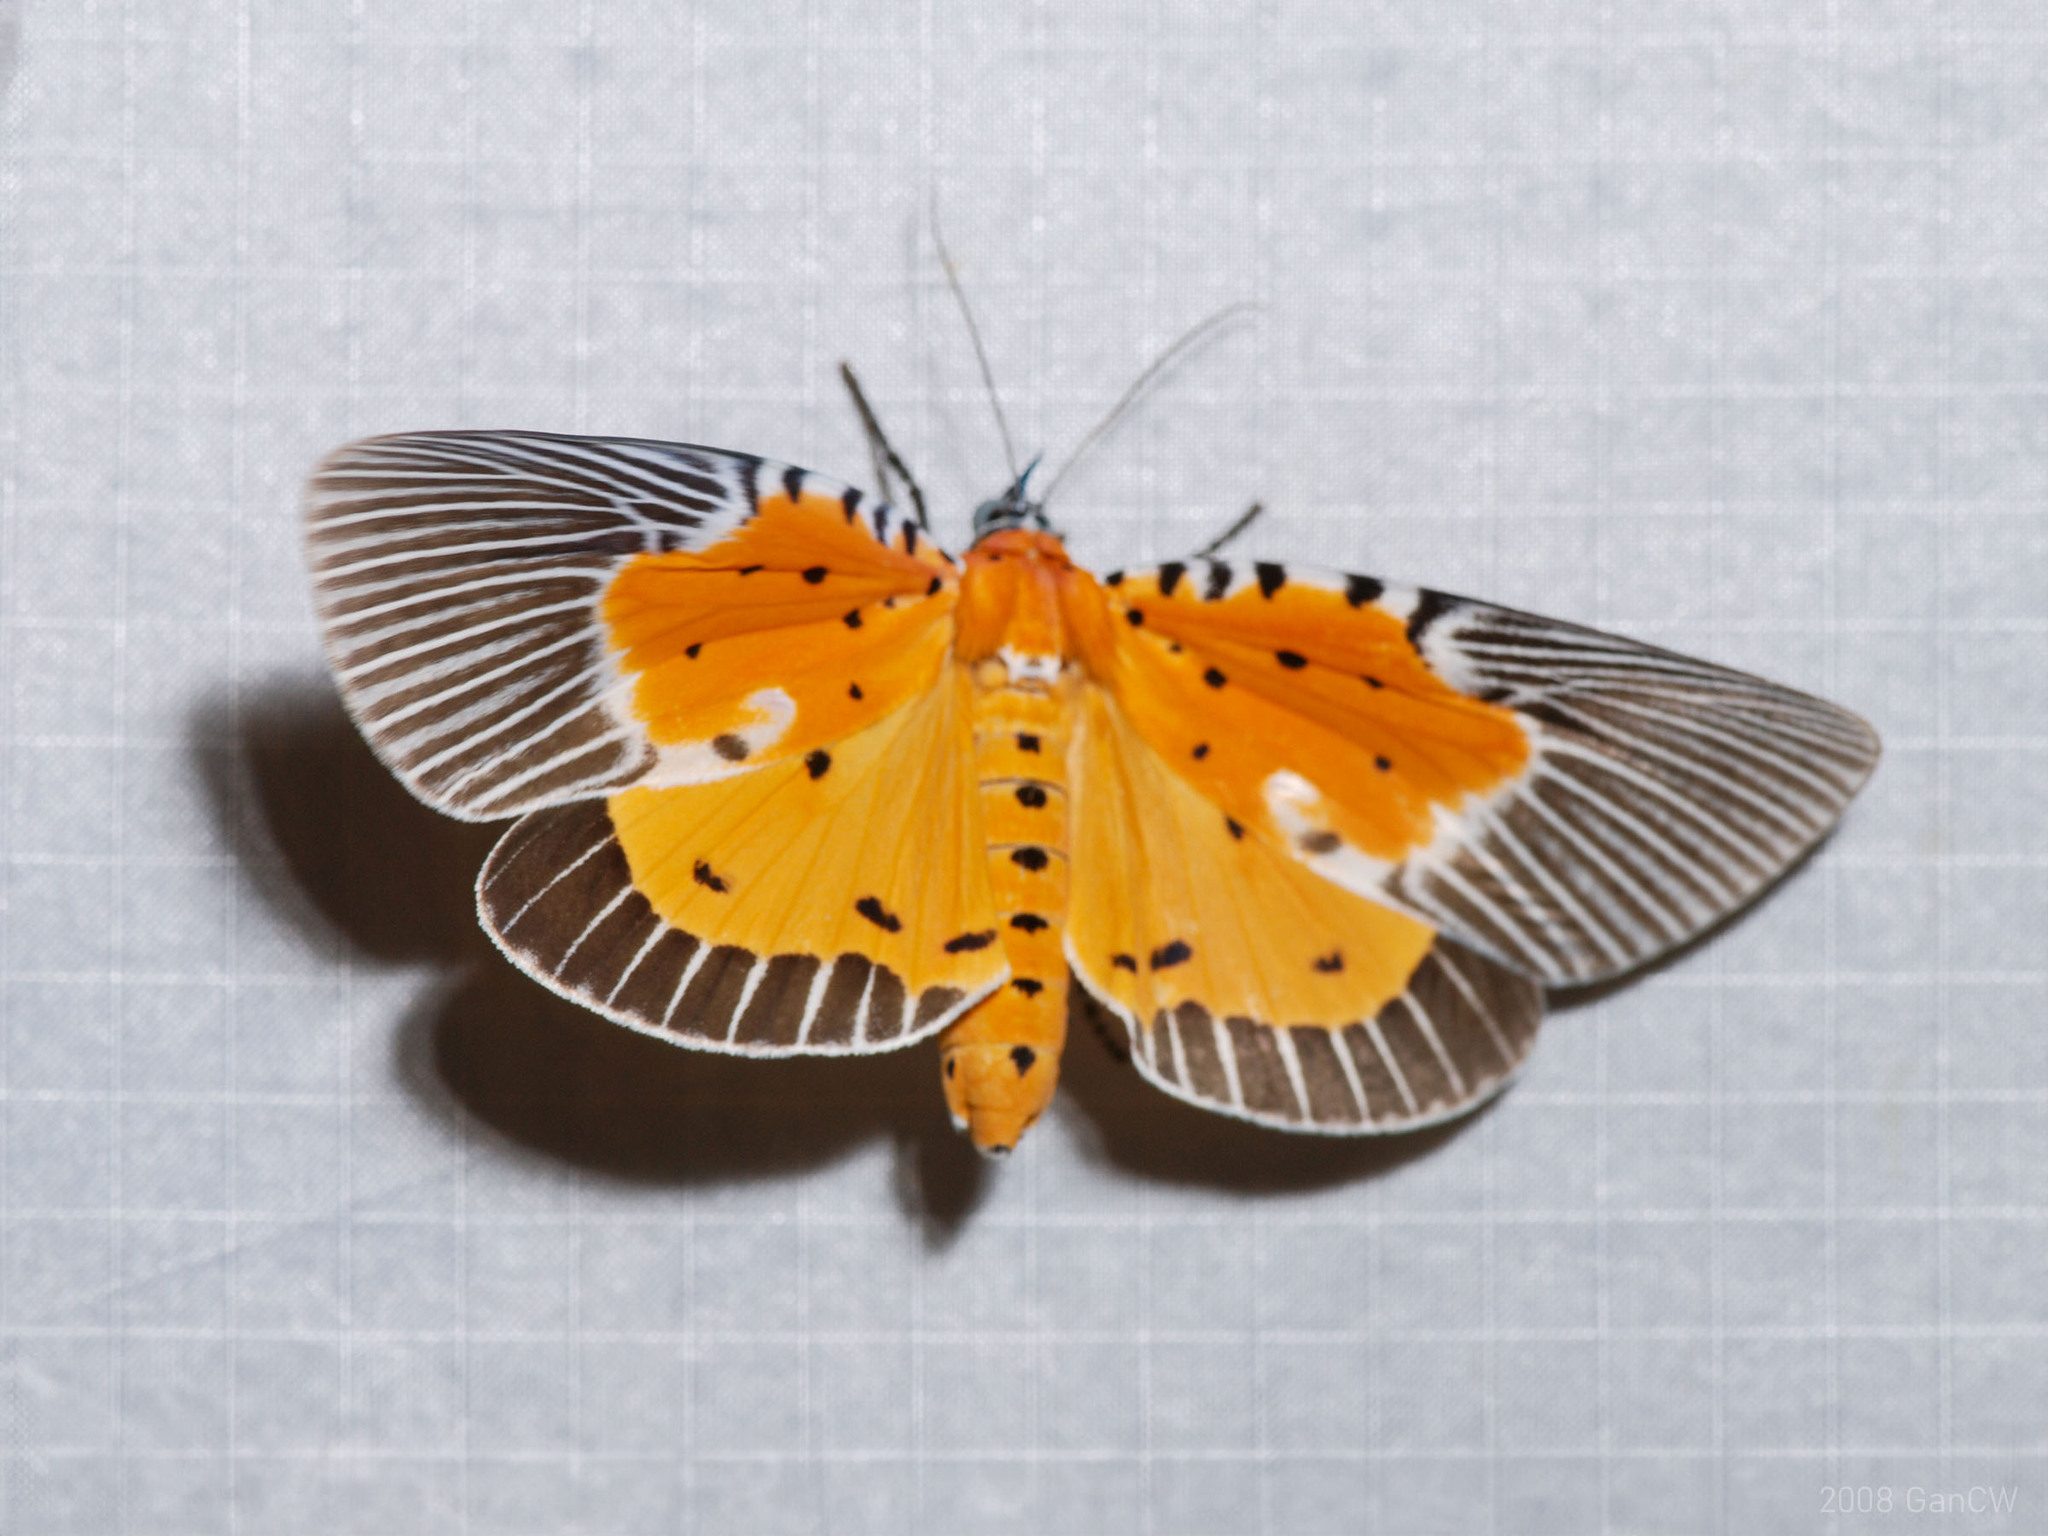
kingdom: Animalia
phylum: Arthropoda
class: Insecta
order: Lepidoptera
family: Erebidae
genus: Peridrome
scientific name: Peridrome orbicularis
